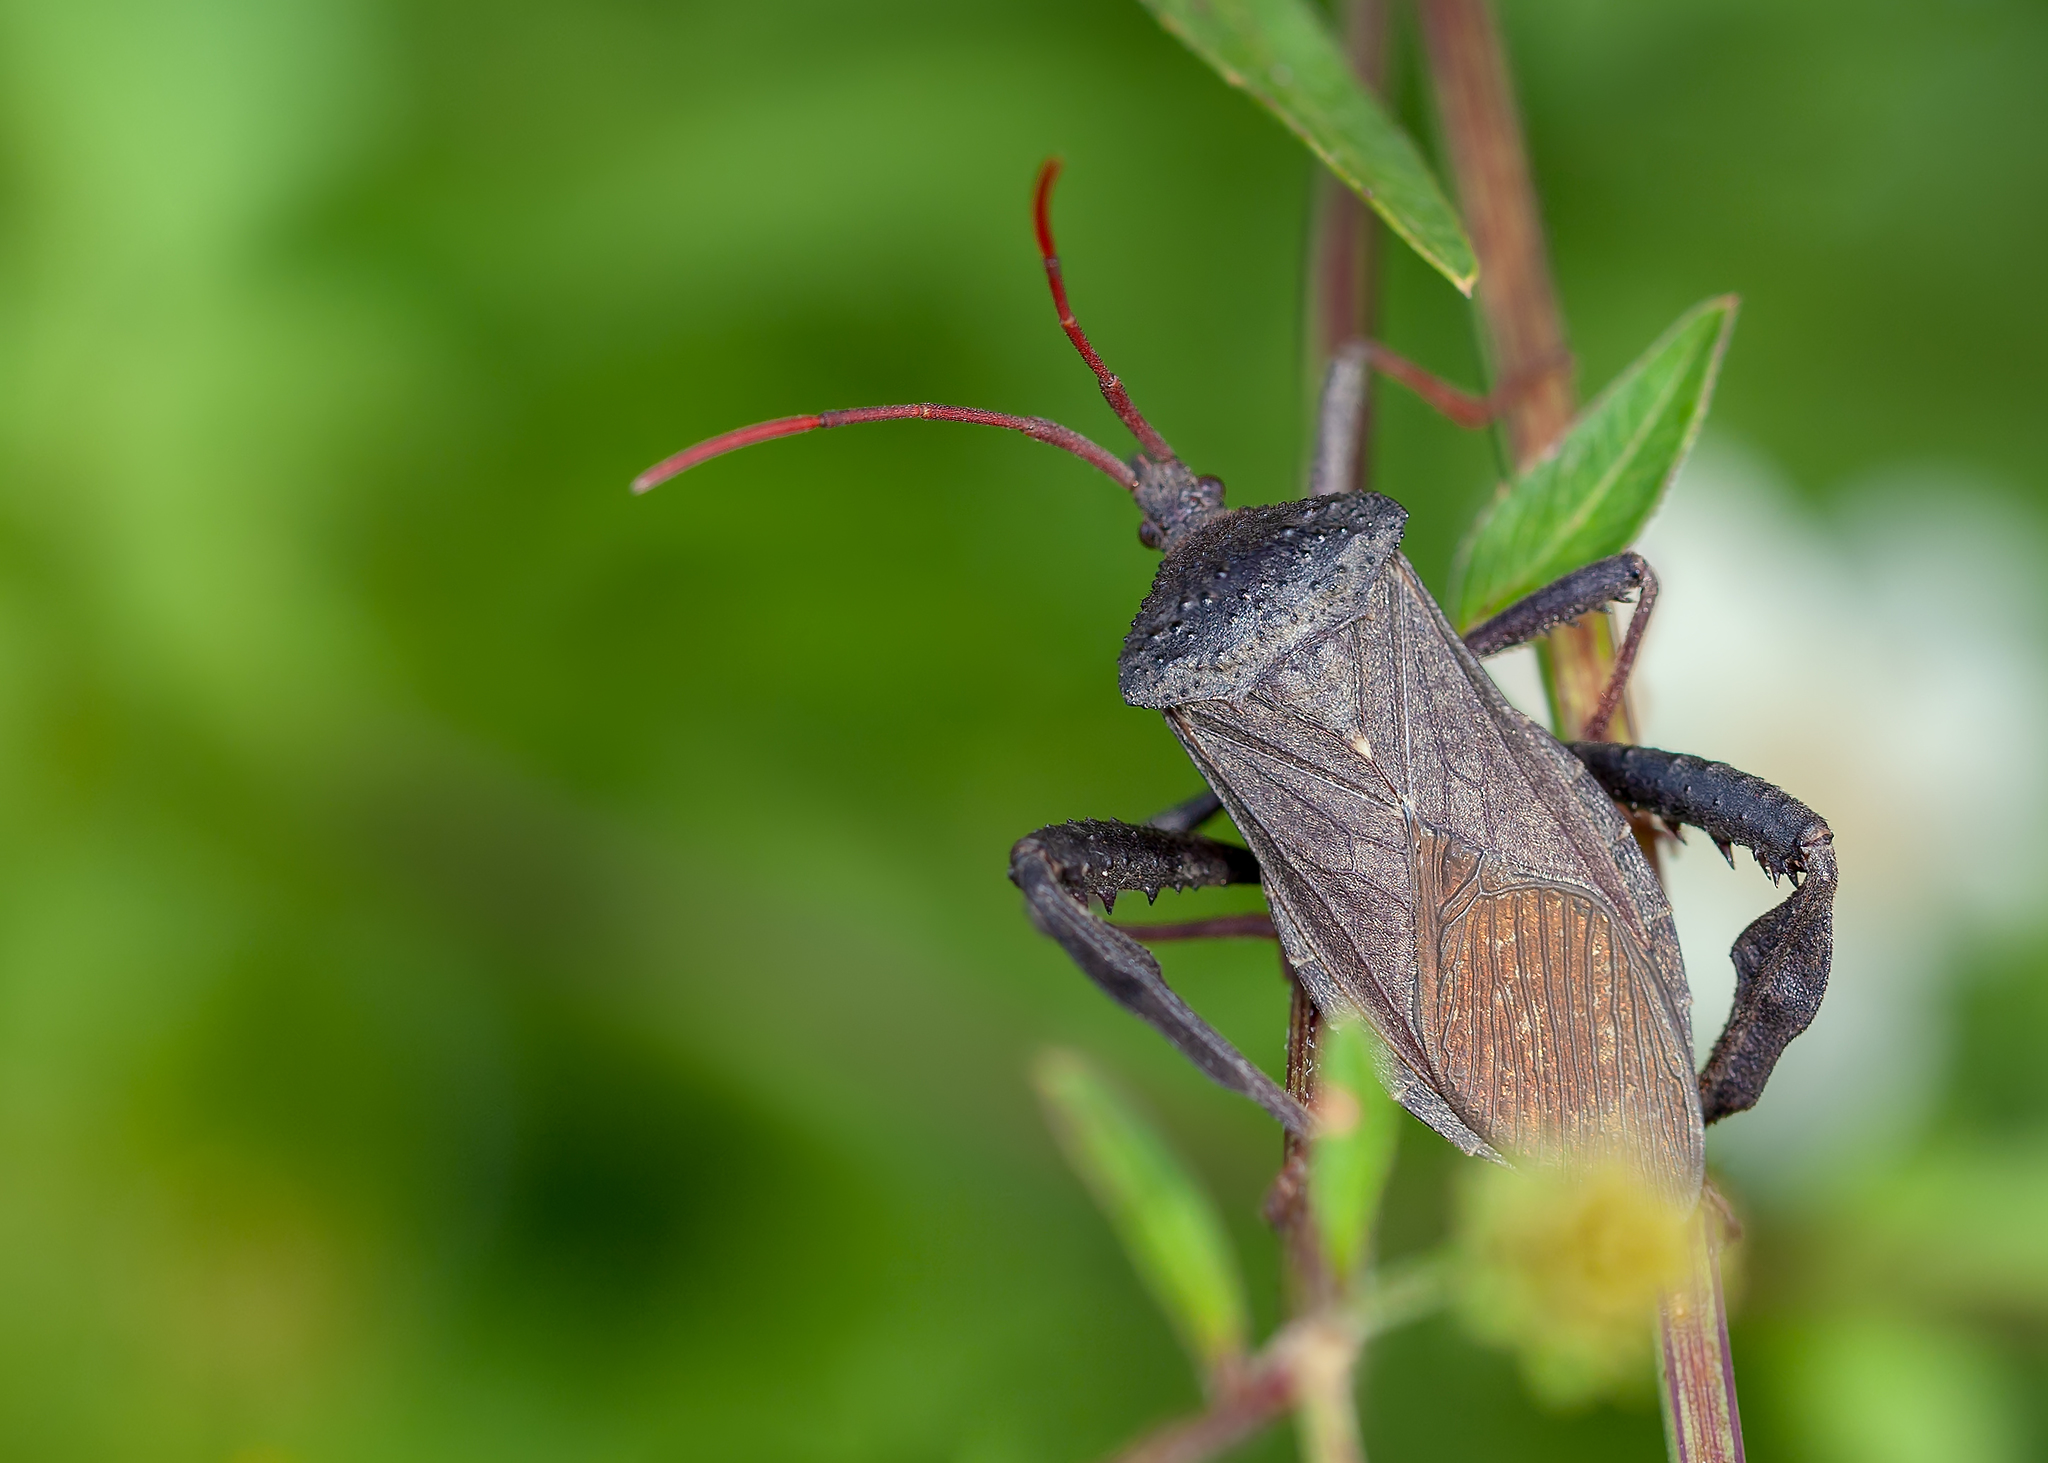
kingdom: Animalia
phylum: Arthropoda
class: Insecta
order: Hemiptera
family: Coreidae
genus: Acanthocephala
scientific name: Acanthocephala femorata
